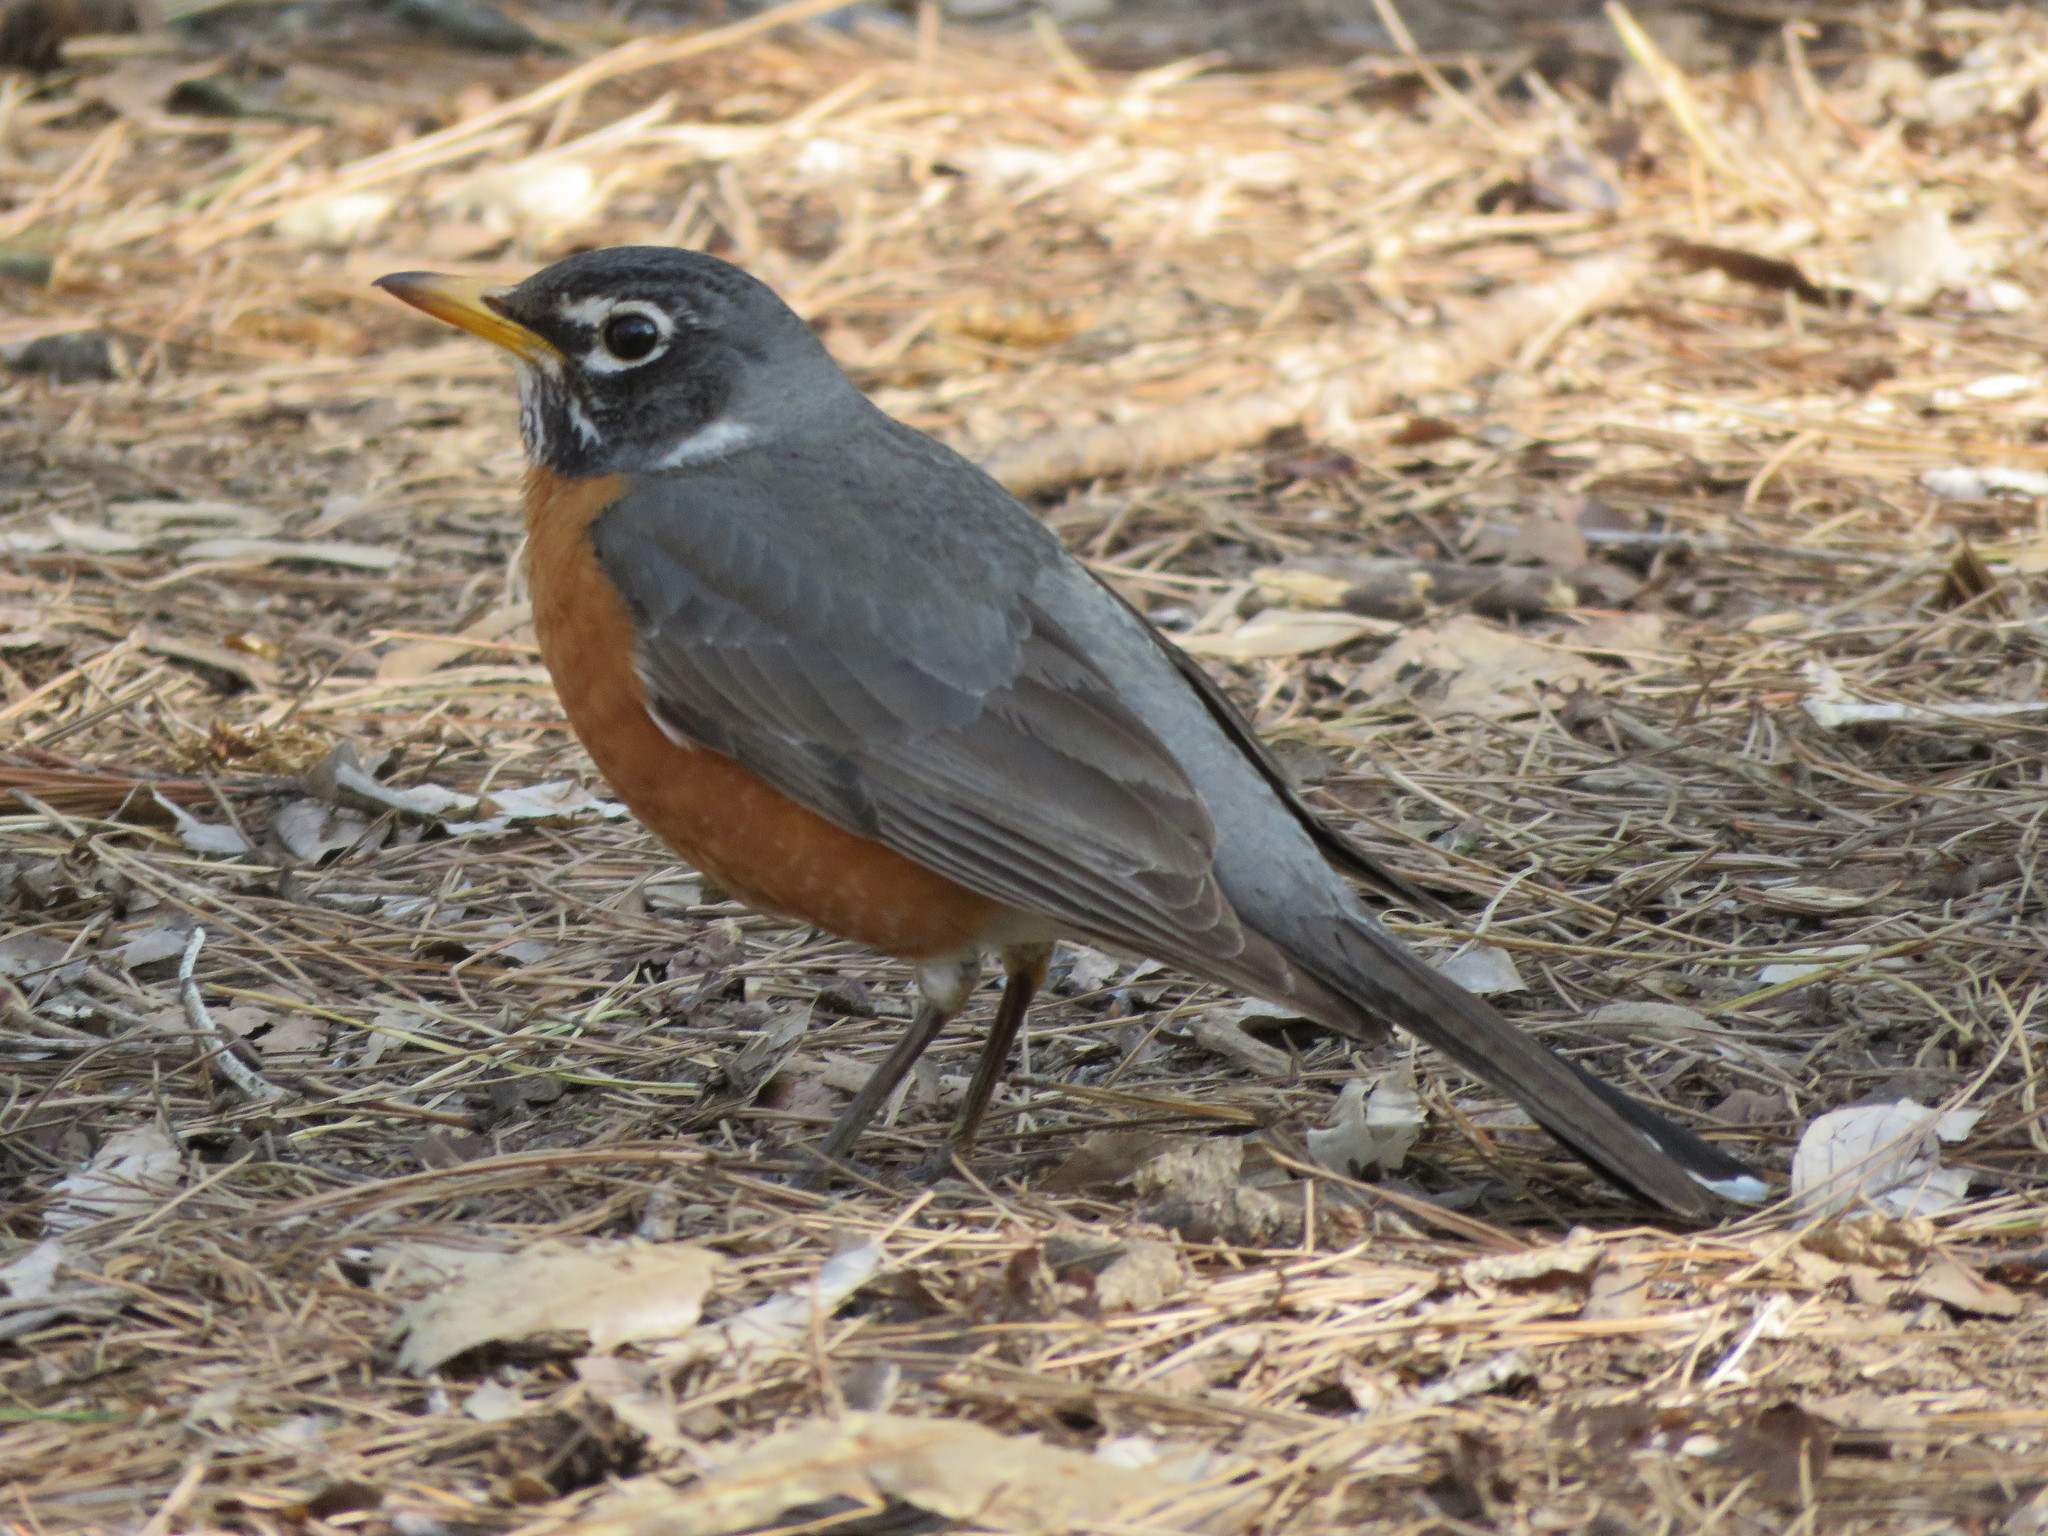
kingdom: Animalia
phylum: Chordata
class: Aves
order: Passeriformes
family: Turdidae
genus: Turdus
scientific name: Turdus migratorius
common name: American robin
